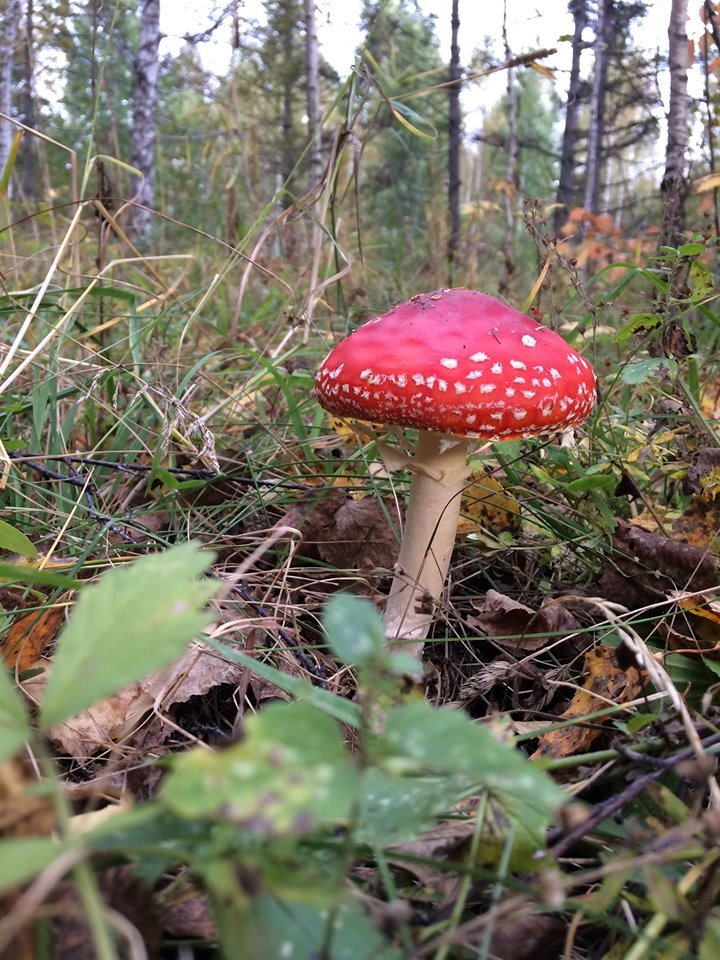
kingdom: Fungi
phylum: Basidiomycota
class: Agaricomycetes
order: Agaricales
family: Amanitaceae
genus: Amanita
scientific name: Amanita muscaria
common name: Fly agaric
